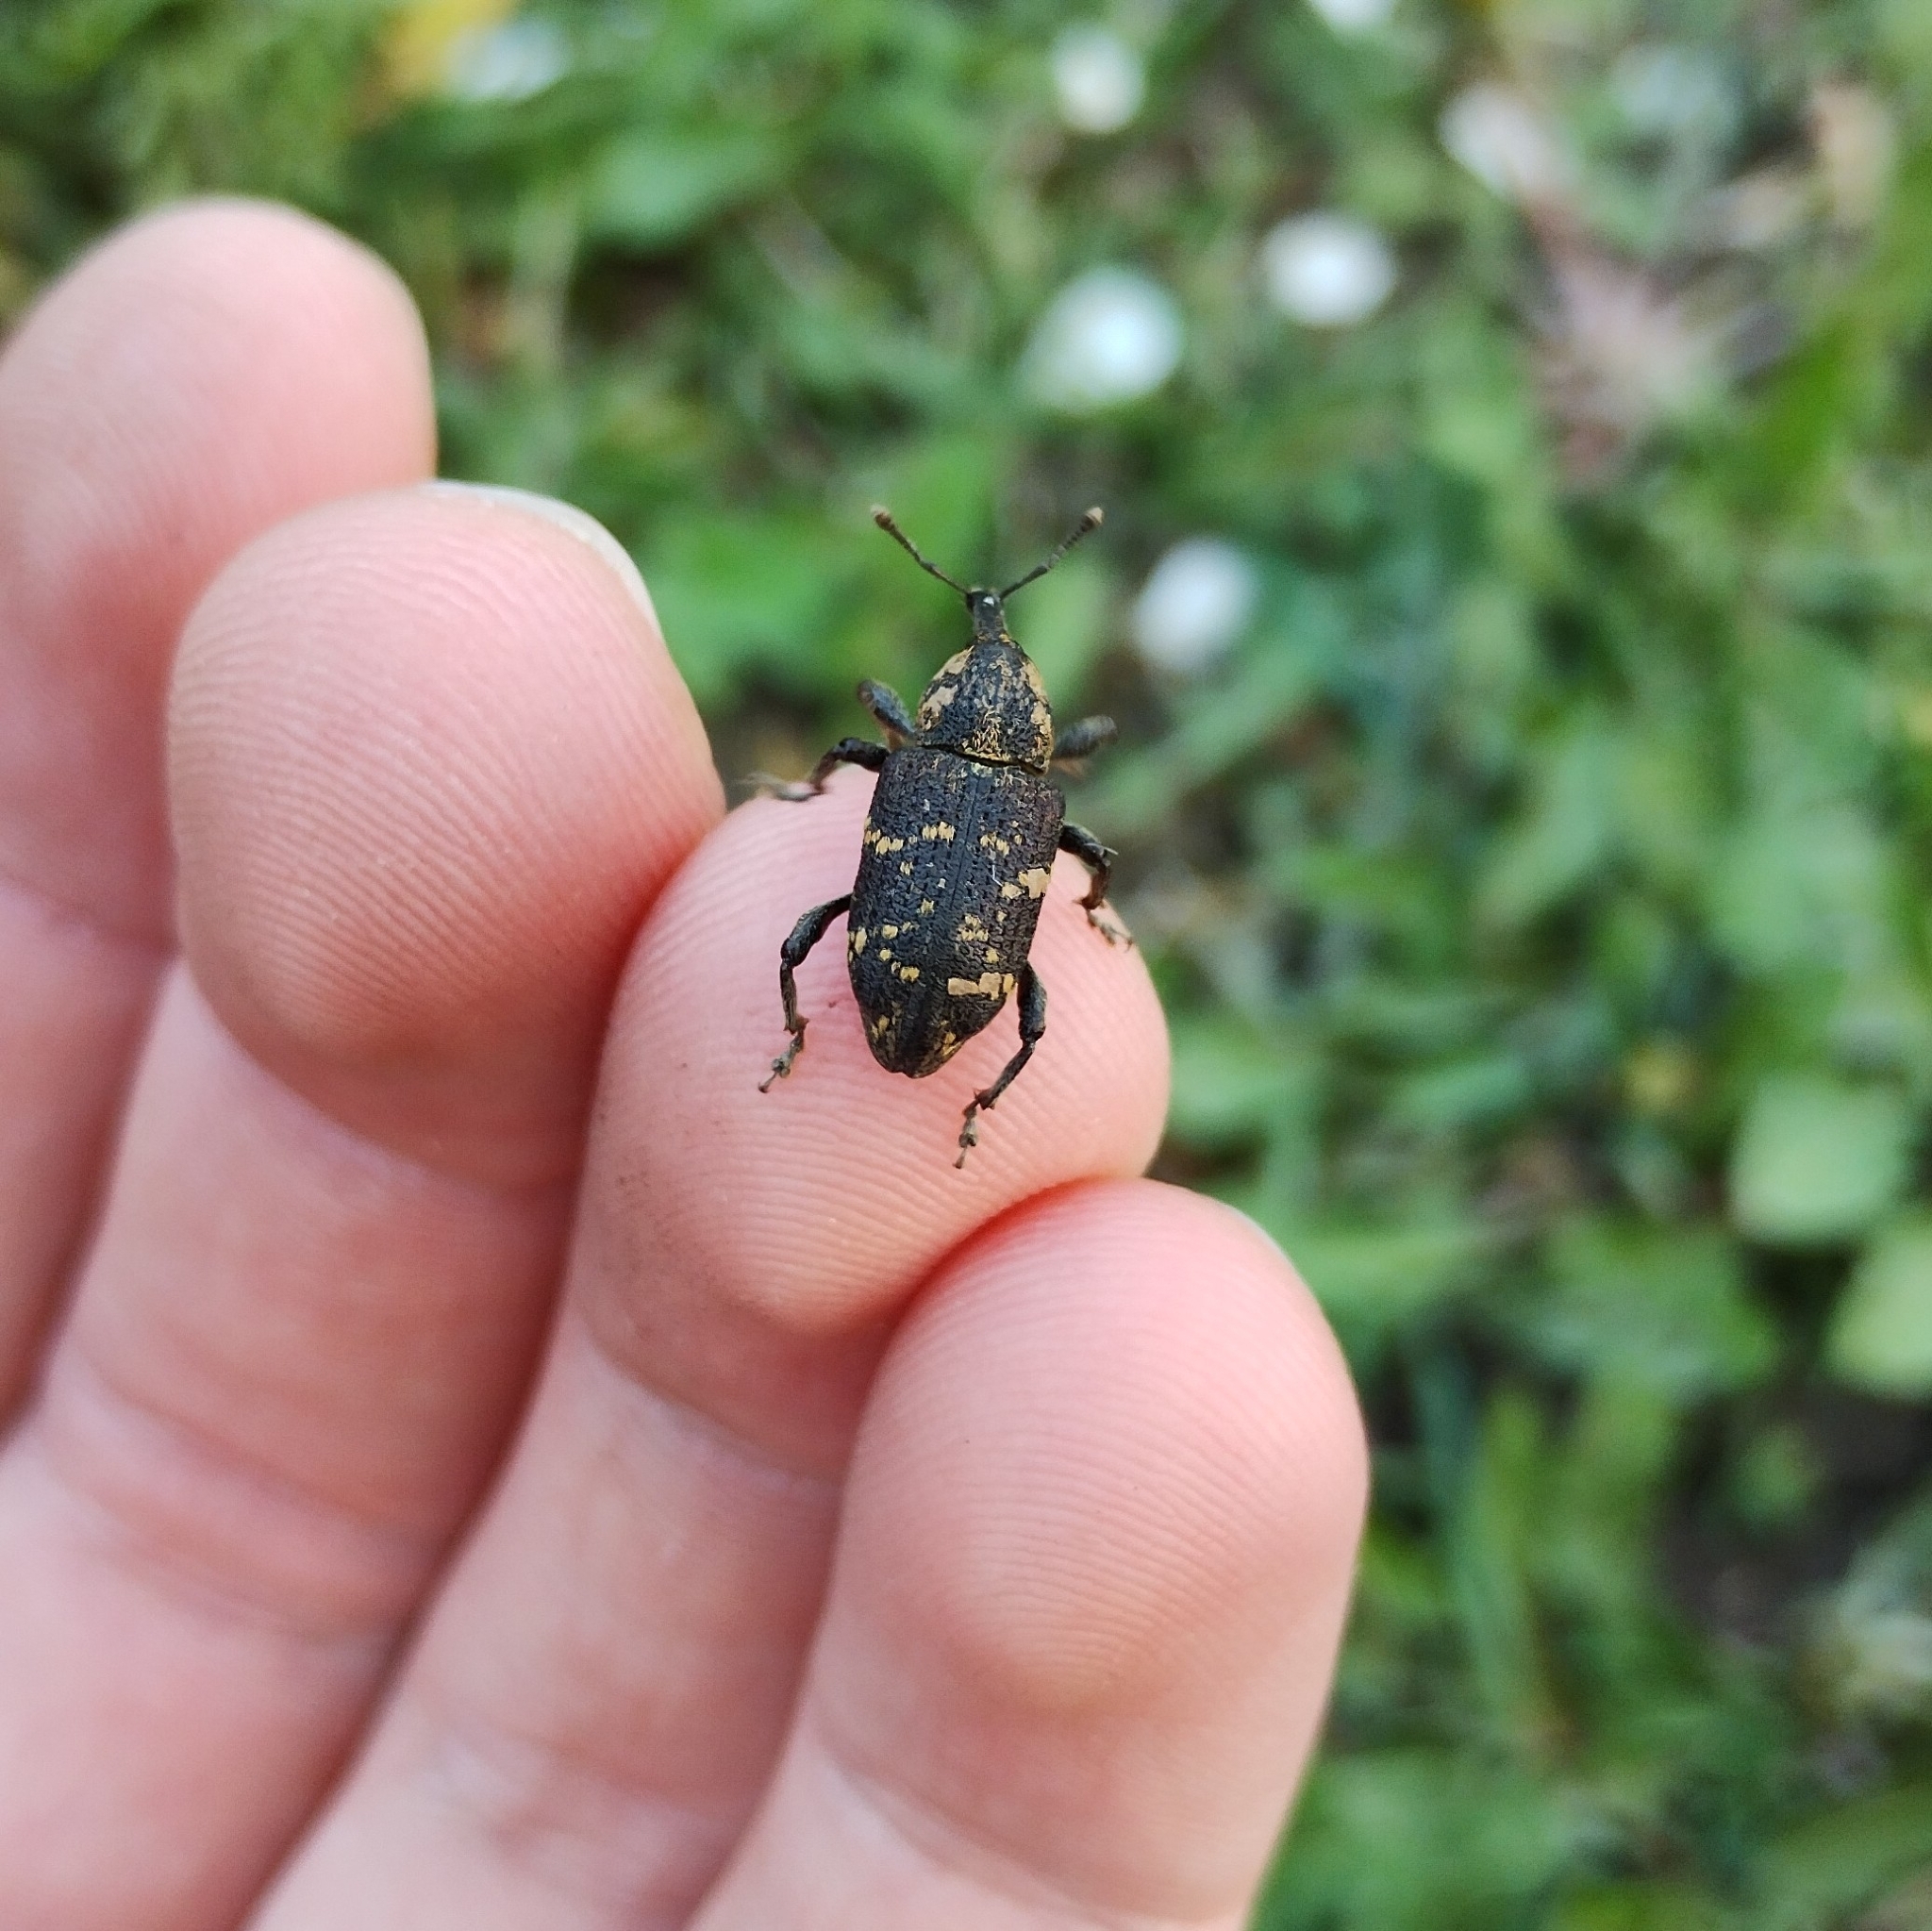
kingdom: Animalia
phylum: Arthropoda
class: Insecta
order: Coleoptera
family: Curculionidae
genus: Hylobius
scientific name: Hylobius abietis
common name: Large pine weevil
